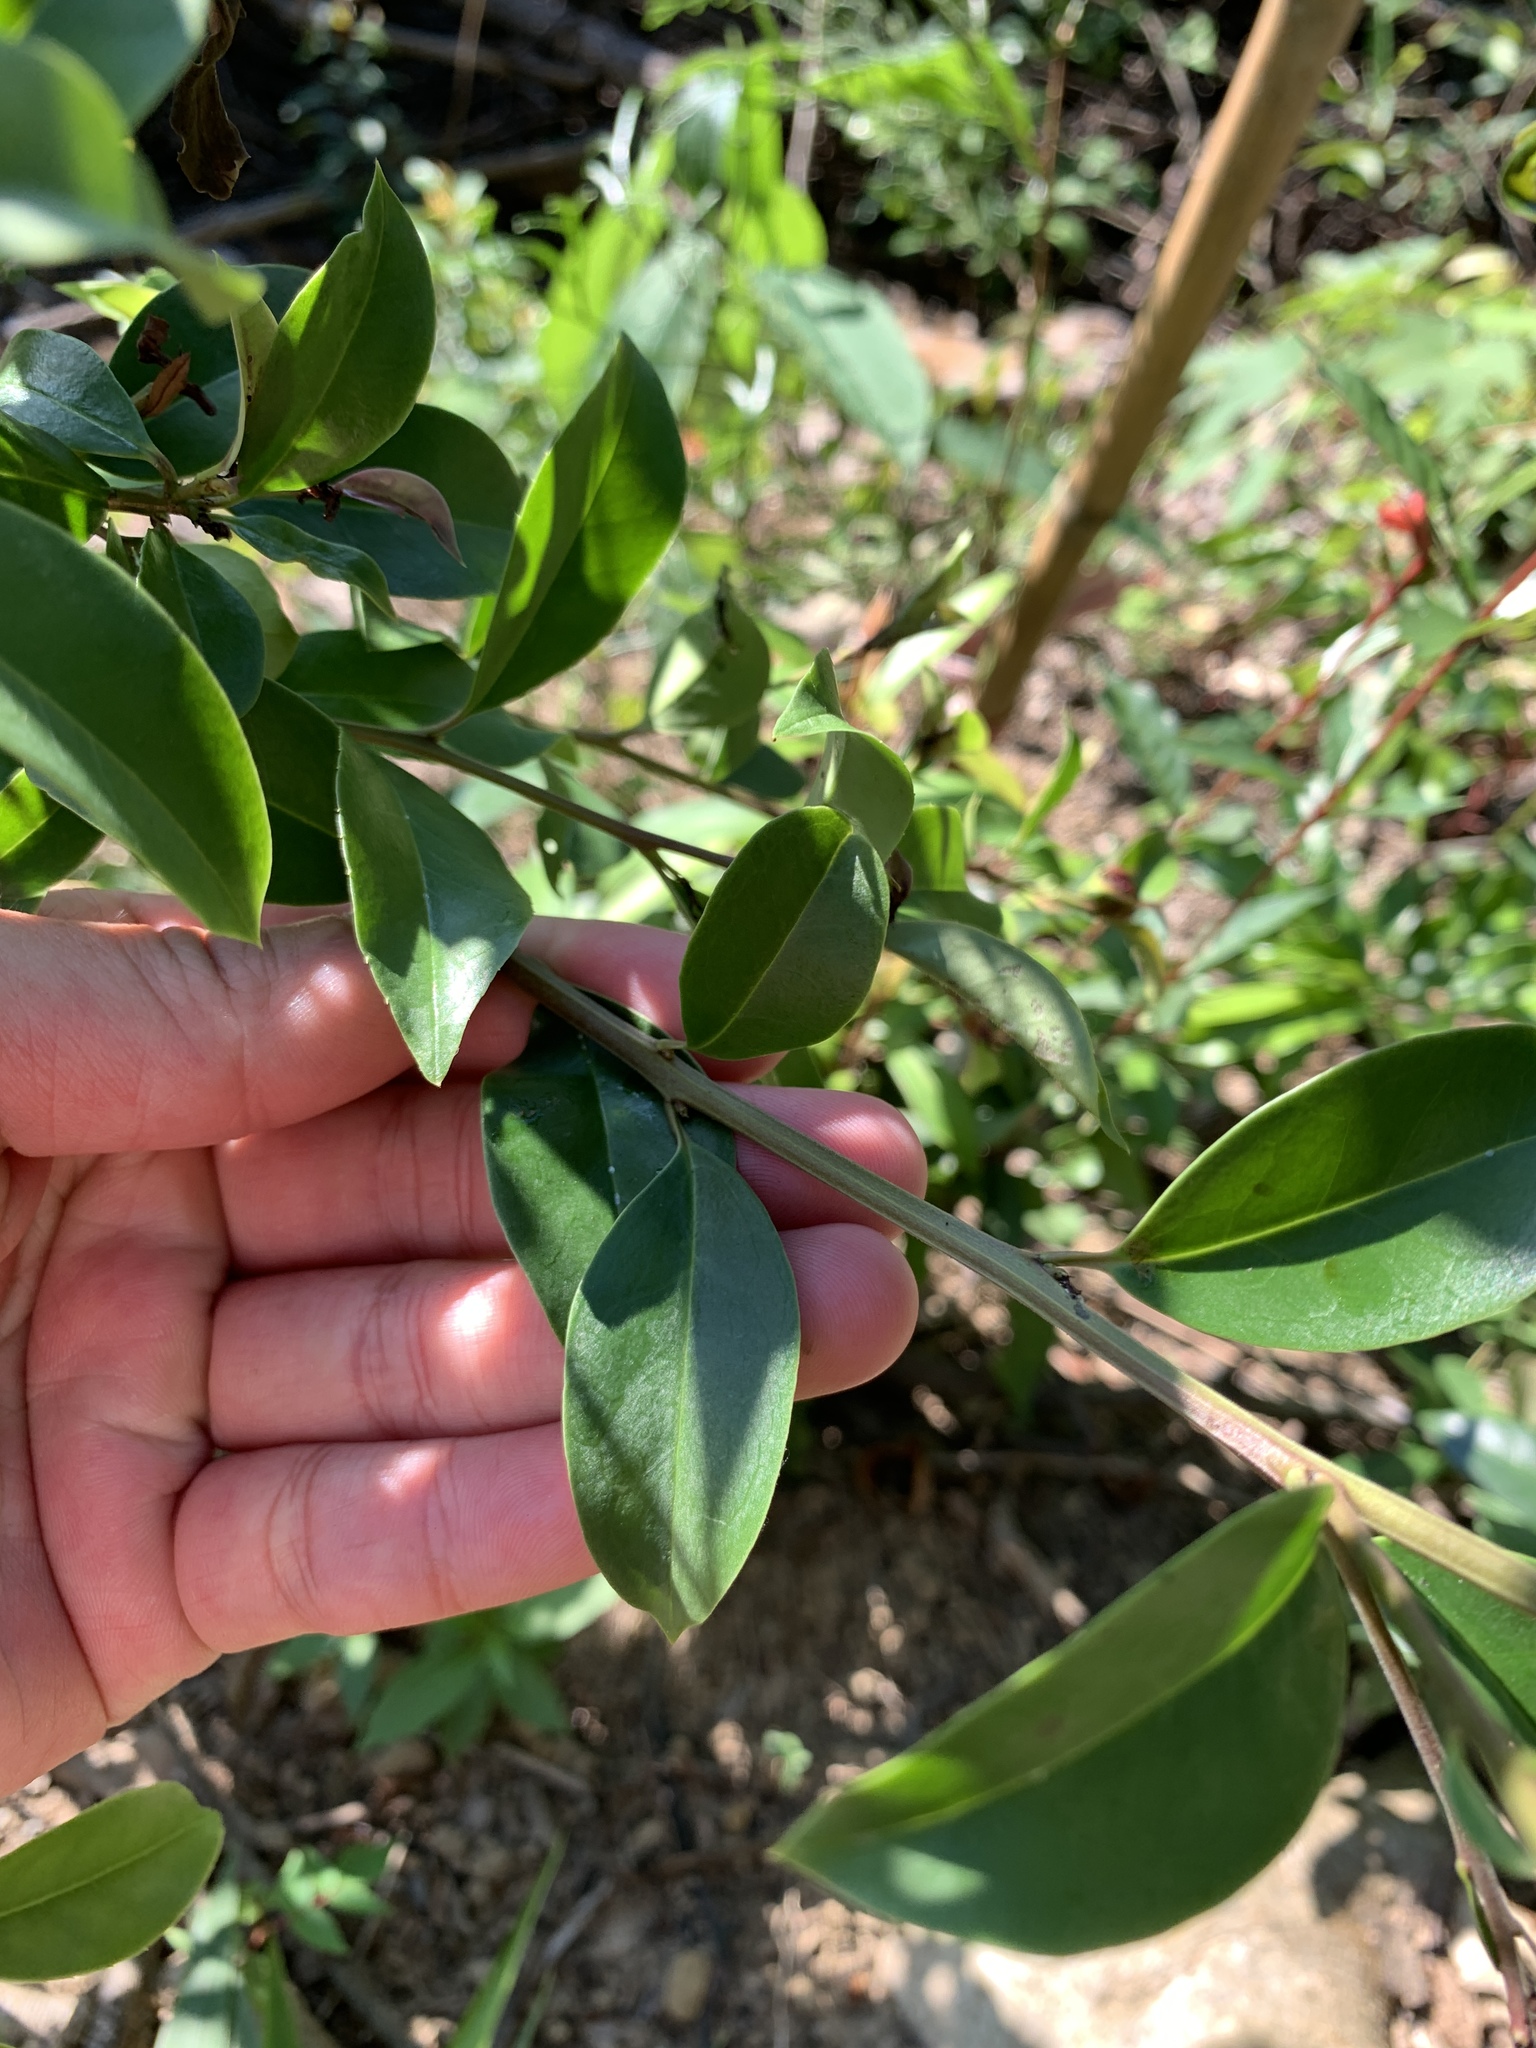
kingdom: Plantae
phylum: Tracheophyta
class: Magnoliopsida
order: Aquifoliales
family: Aquifoliaceae
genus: Ilex
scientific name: Ilex rotunda
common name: Kurogane holly
